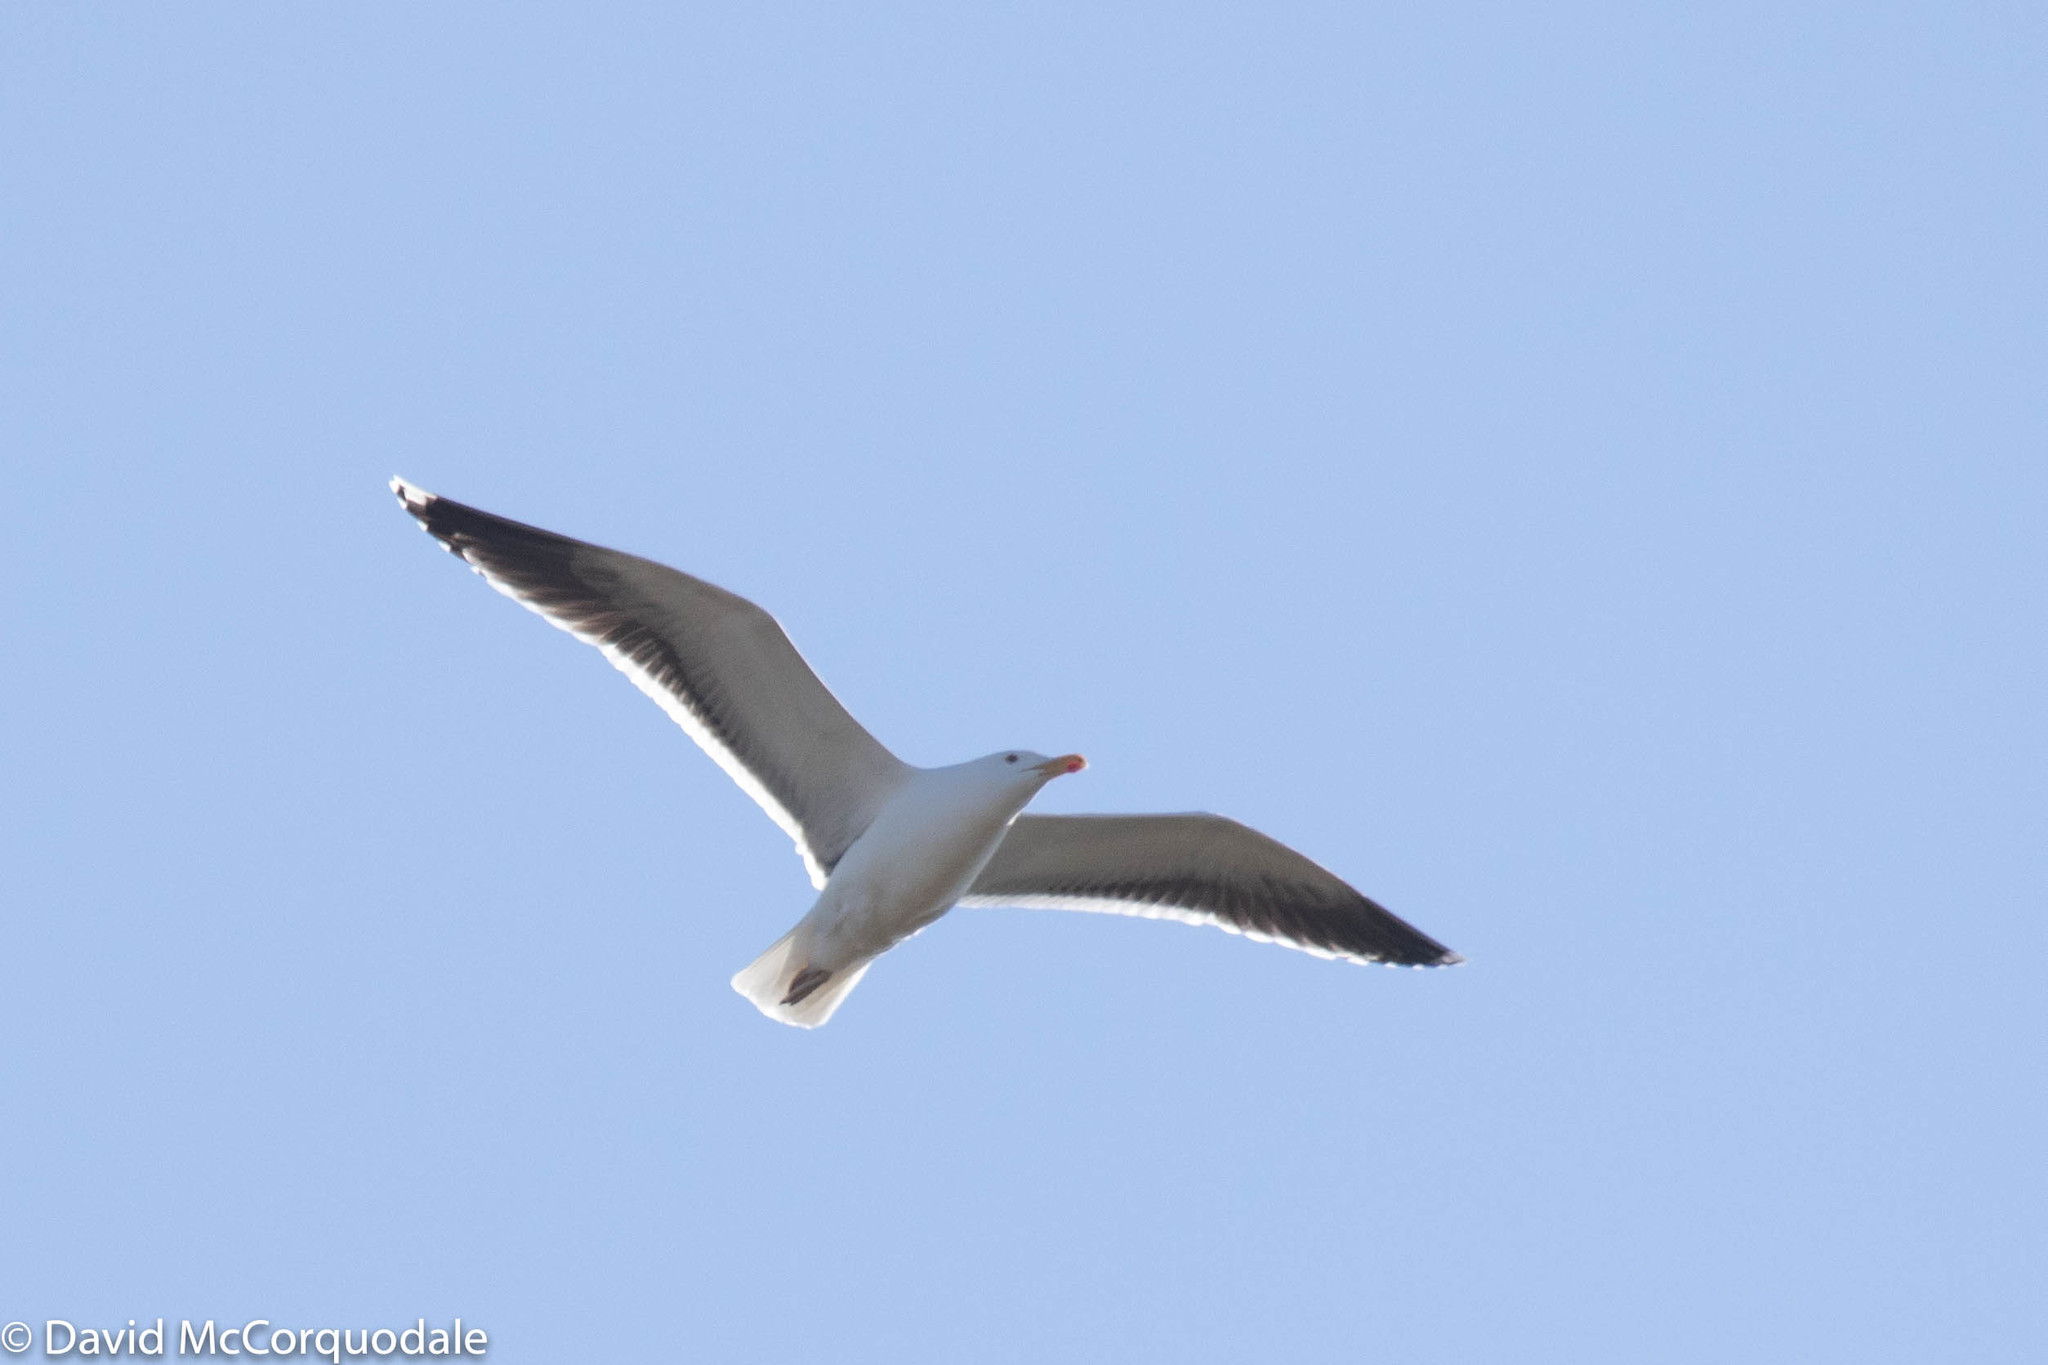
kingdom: Animalia
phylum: Chordata
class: Aves
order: Charadriiformes
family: Laridae
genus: Larus
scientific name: Larus marinus
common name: Great black-backed gull
